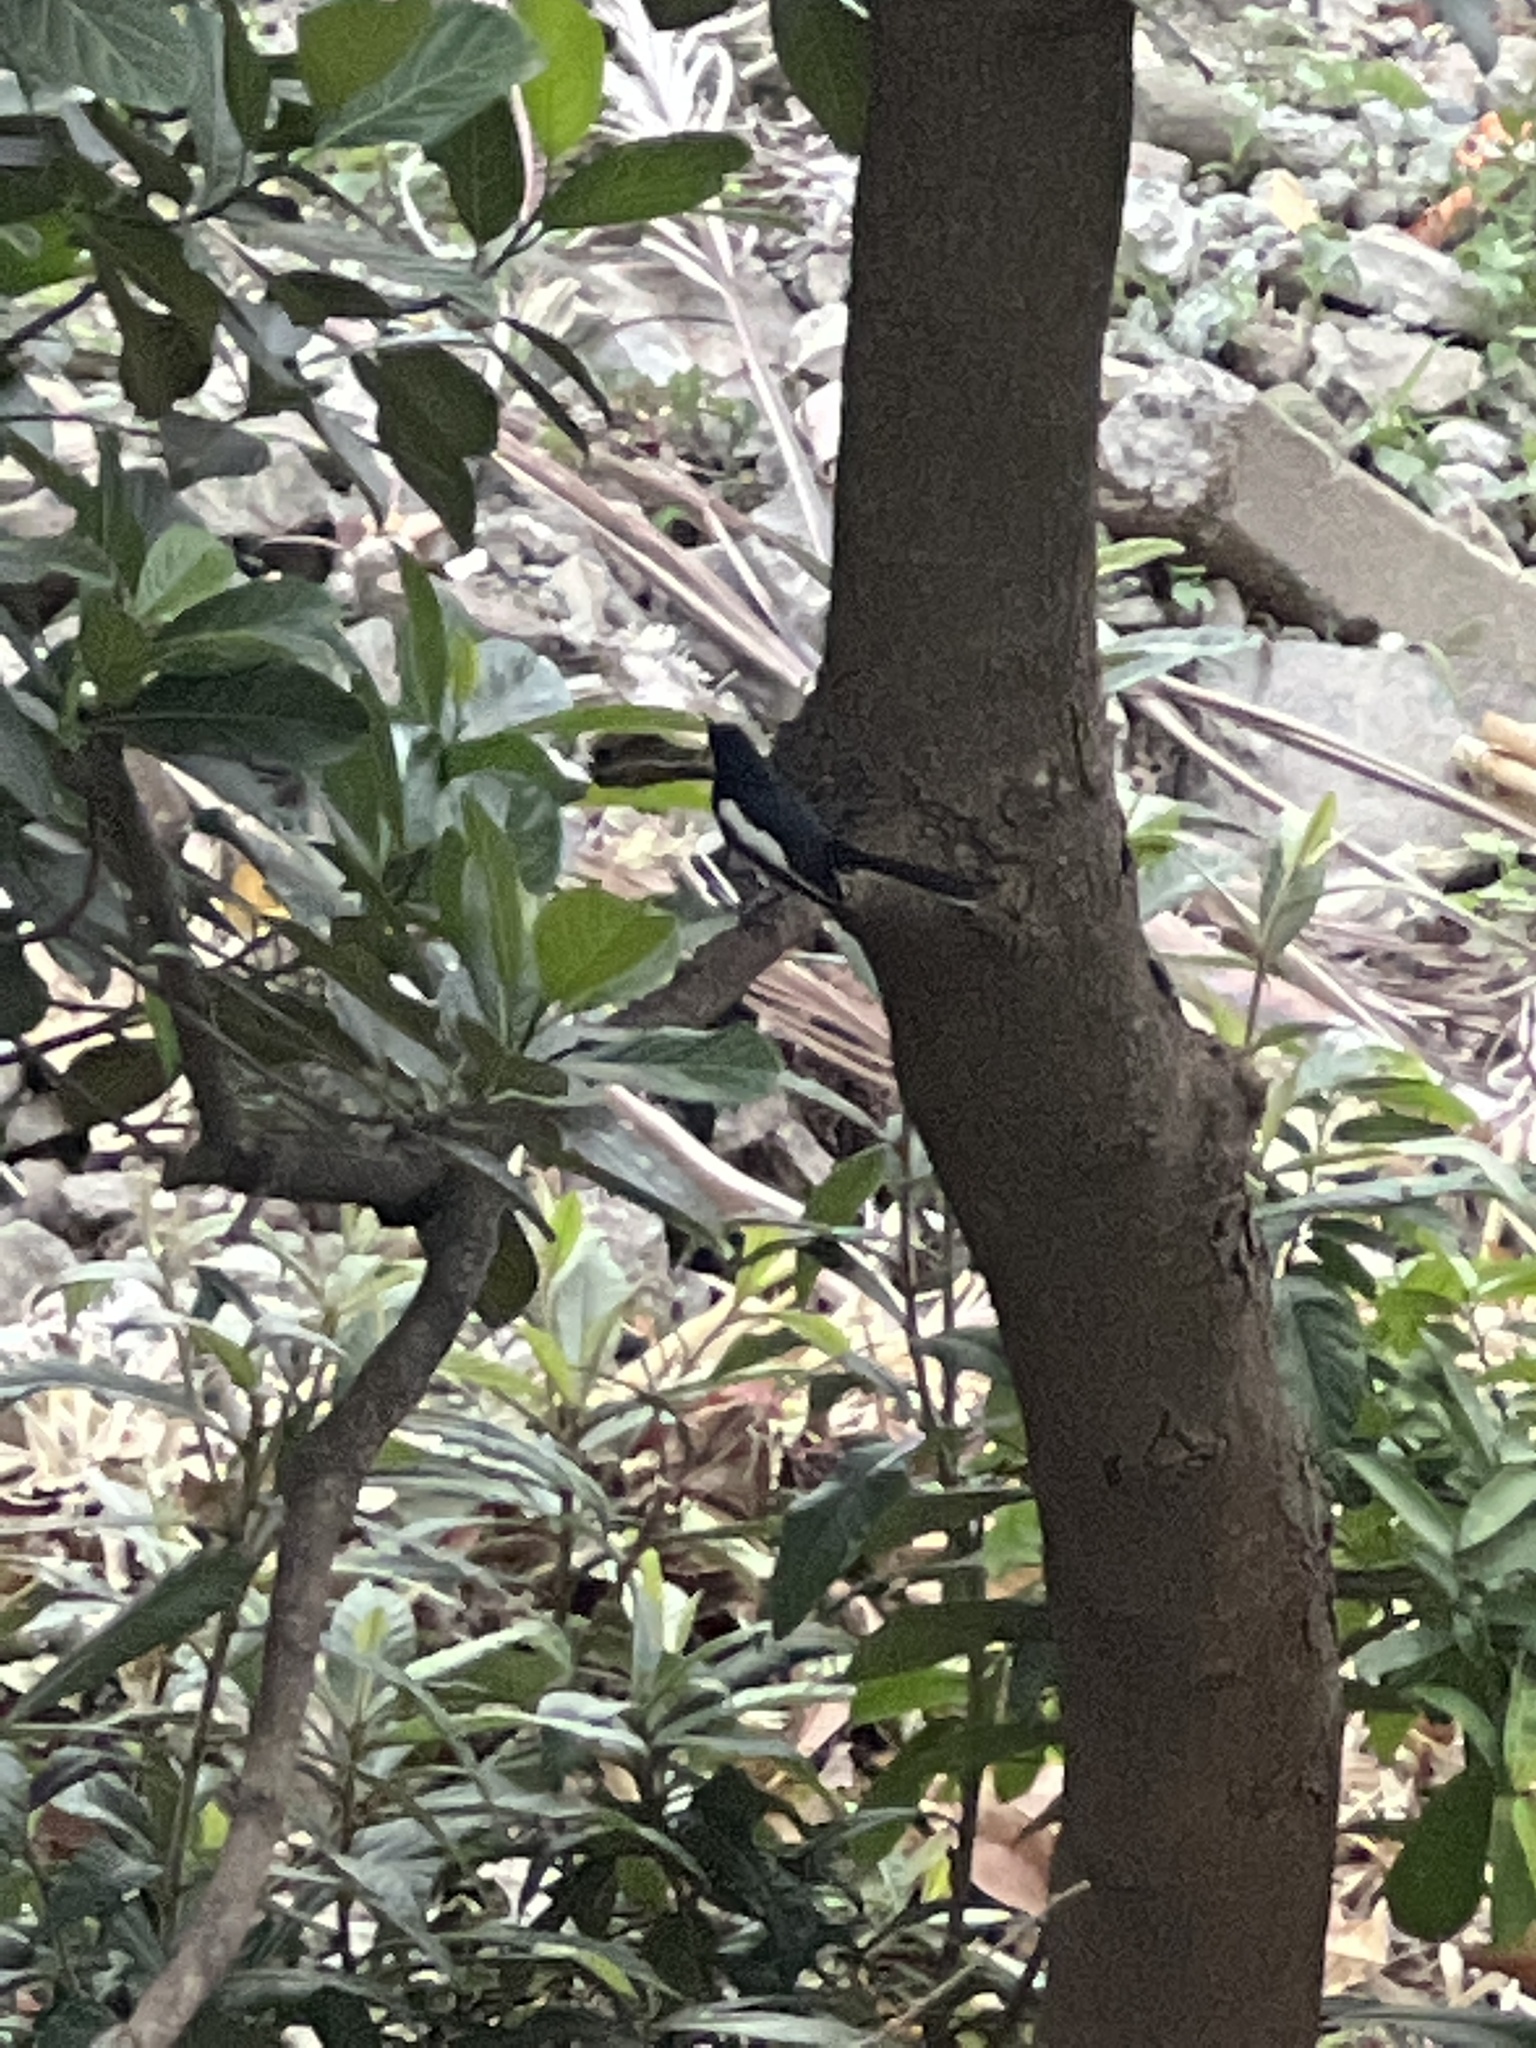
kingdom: Animalia
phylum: Chordata
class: Aves
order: Passeriformes
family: Muscicapidae
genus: Copsychus
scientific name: Copsychus saularis
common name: Oriental magpie-robin
